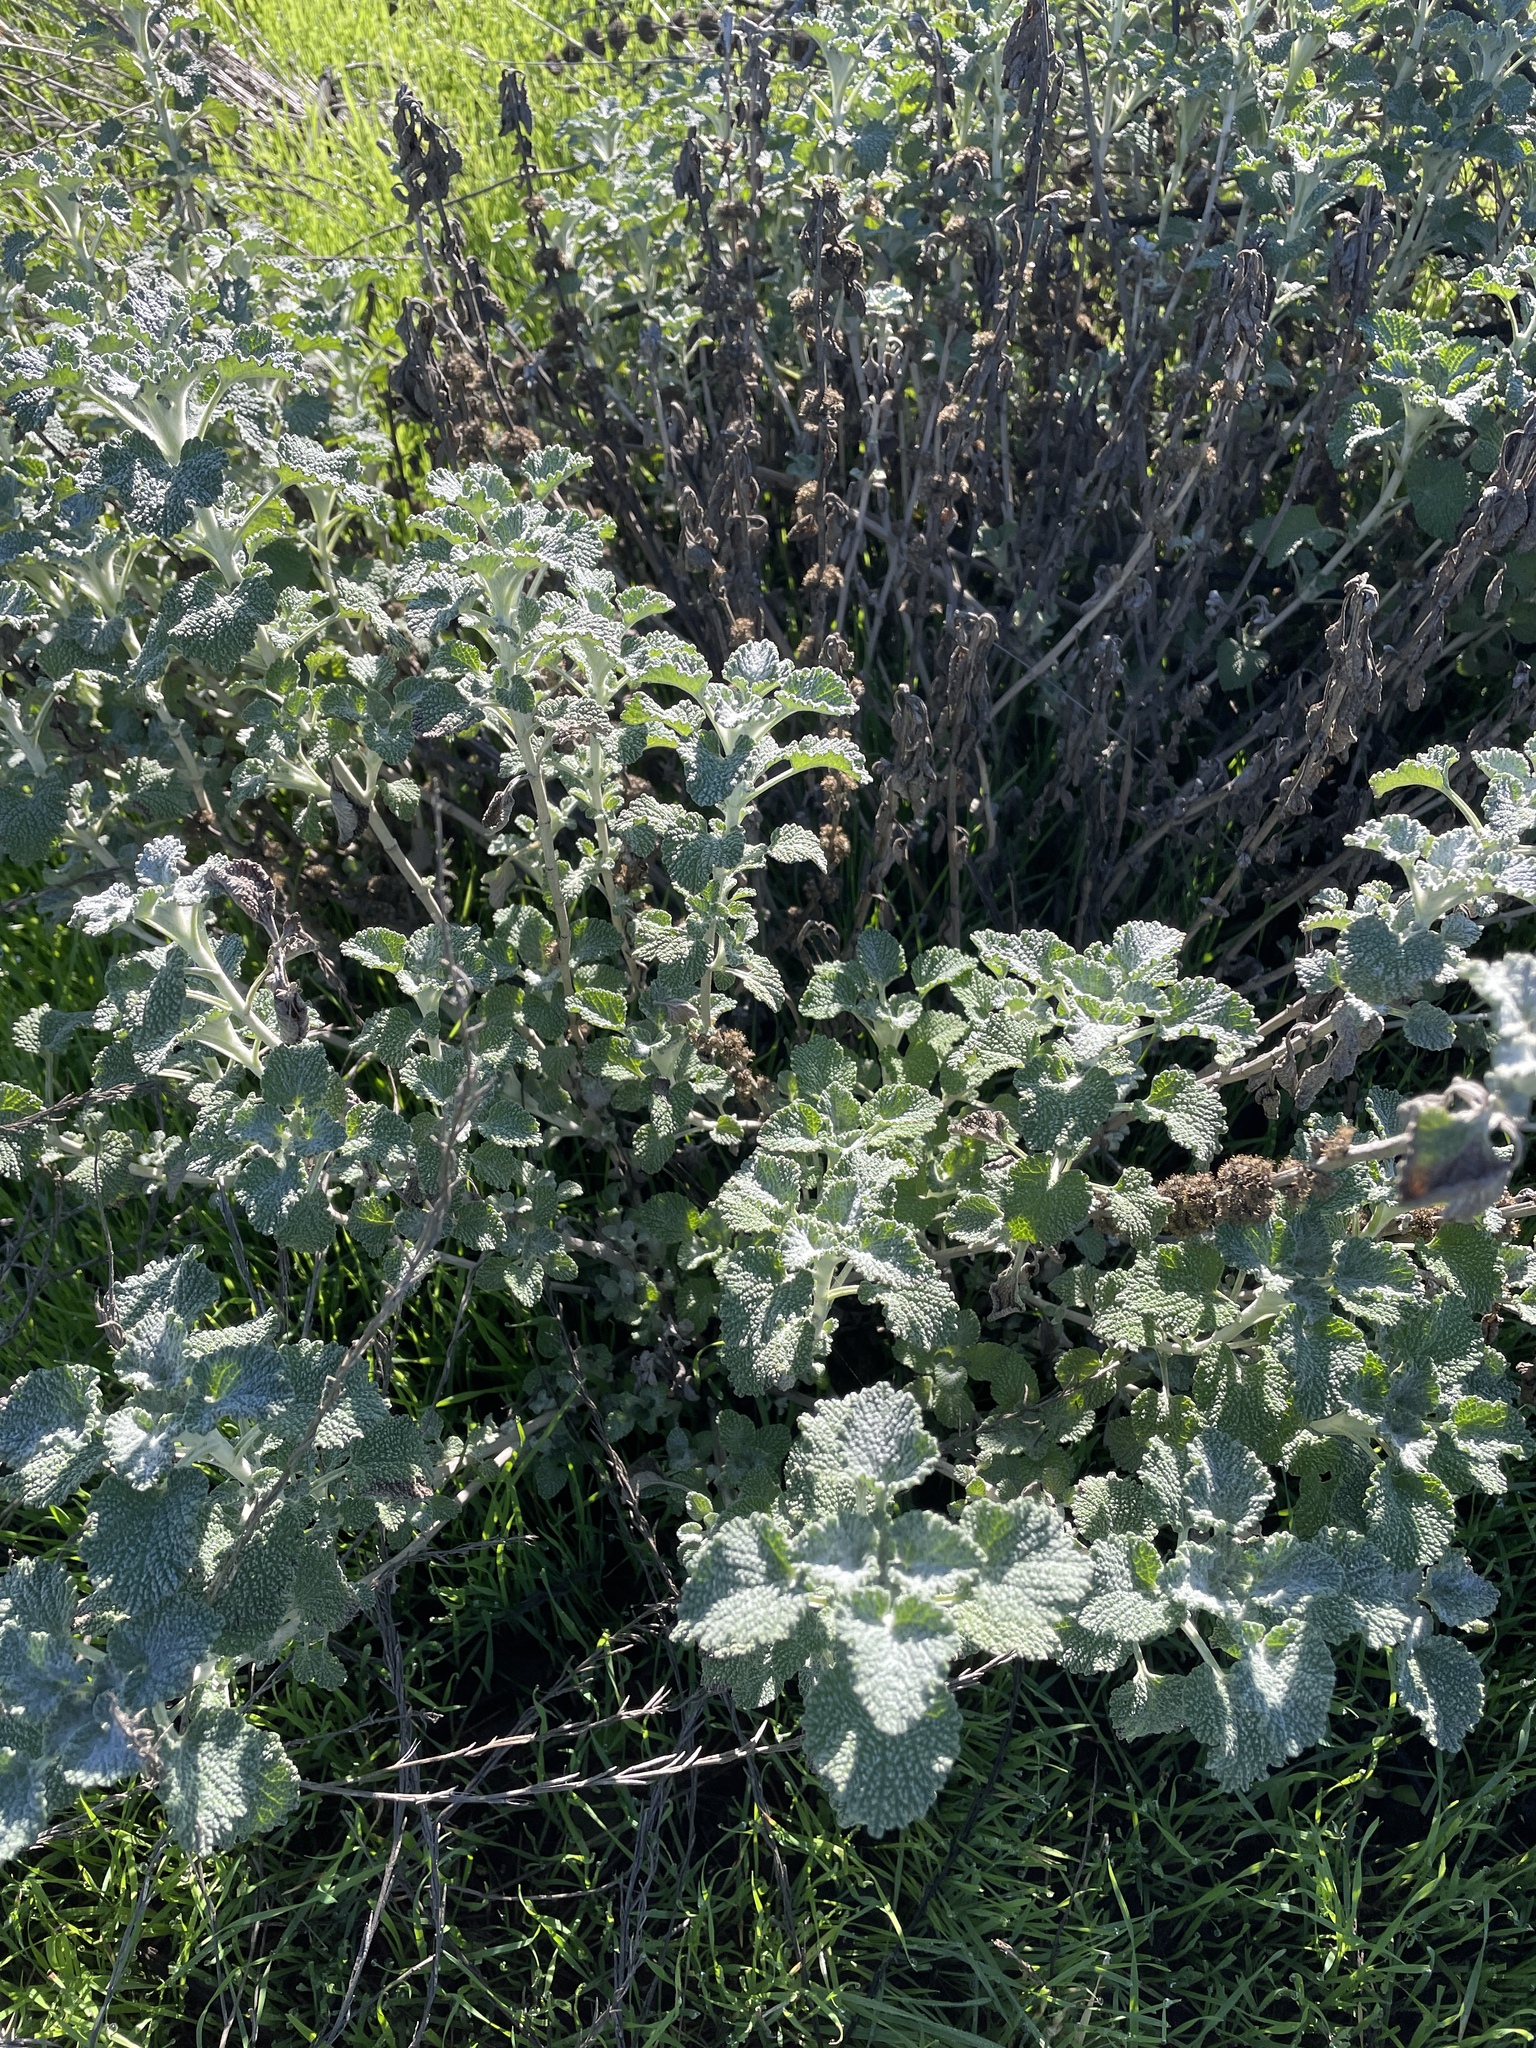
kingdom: Plantae
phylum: Tracheophyta
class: Magnoliopsida
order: Lamiales
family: Lamiaceae
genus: Marrubium
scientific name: Marrubium vulgare
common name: Horehound
